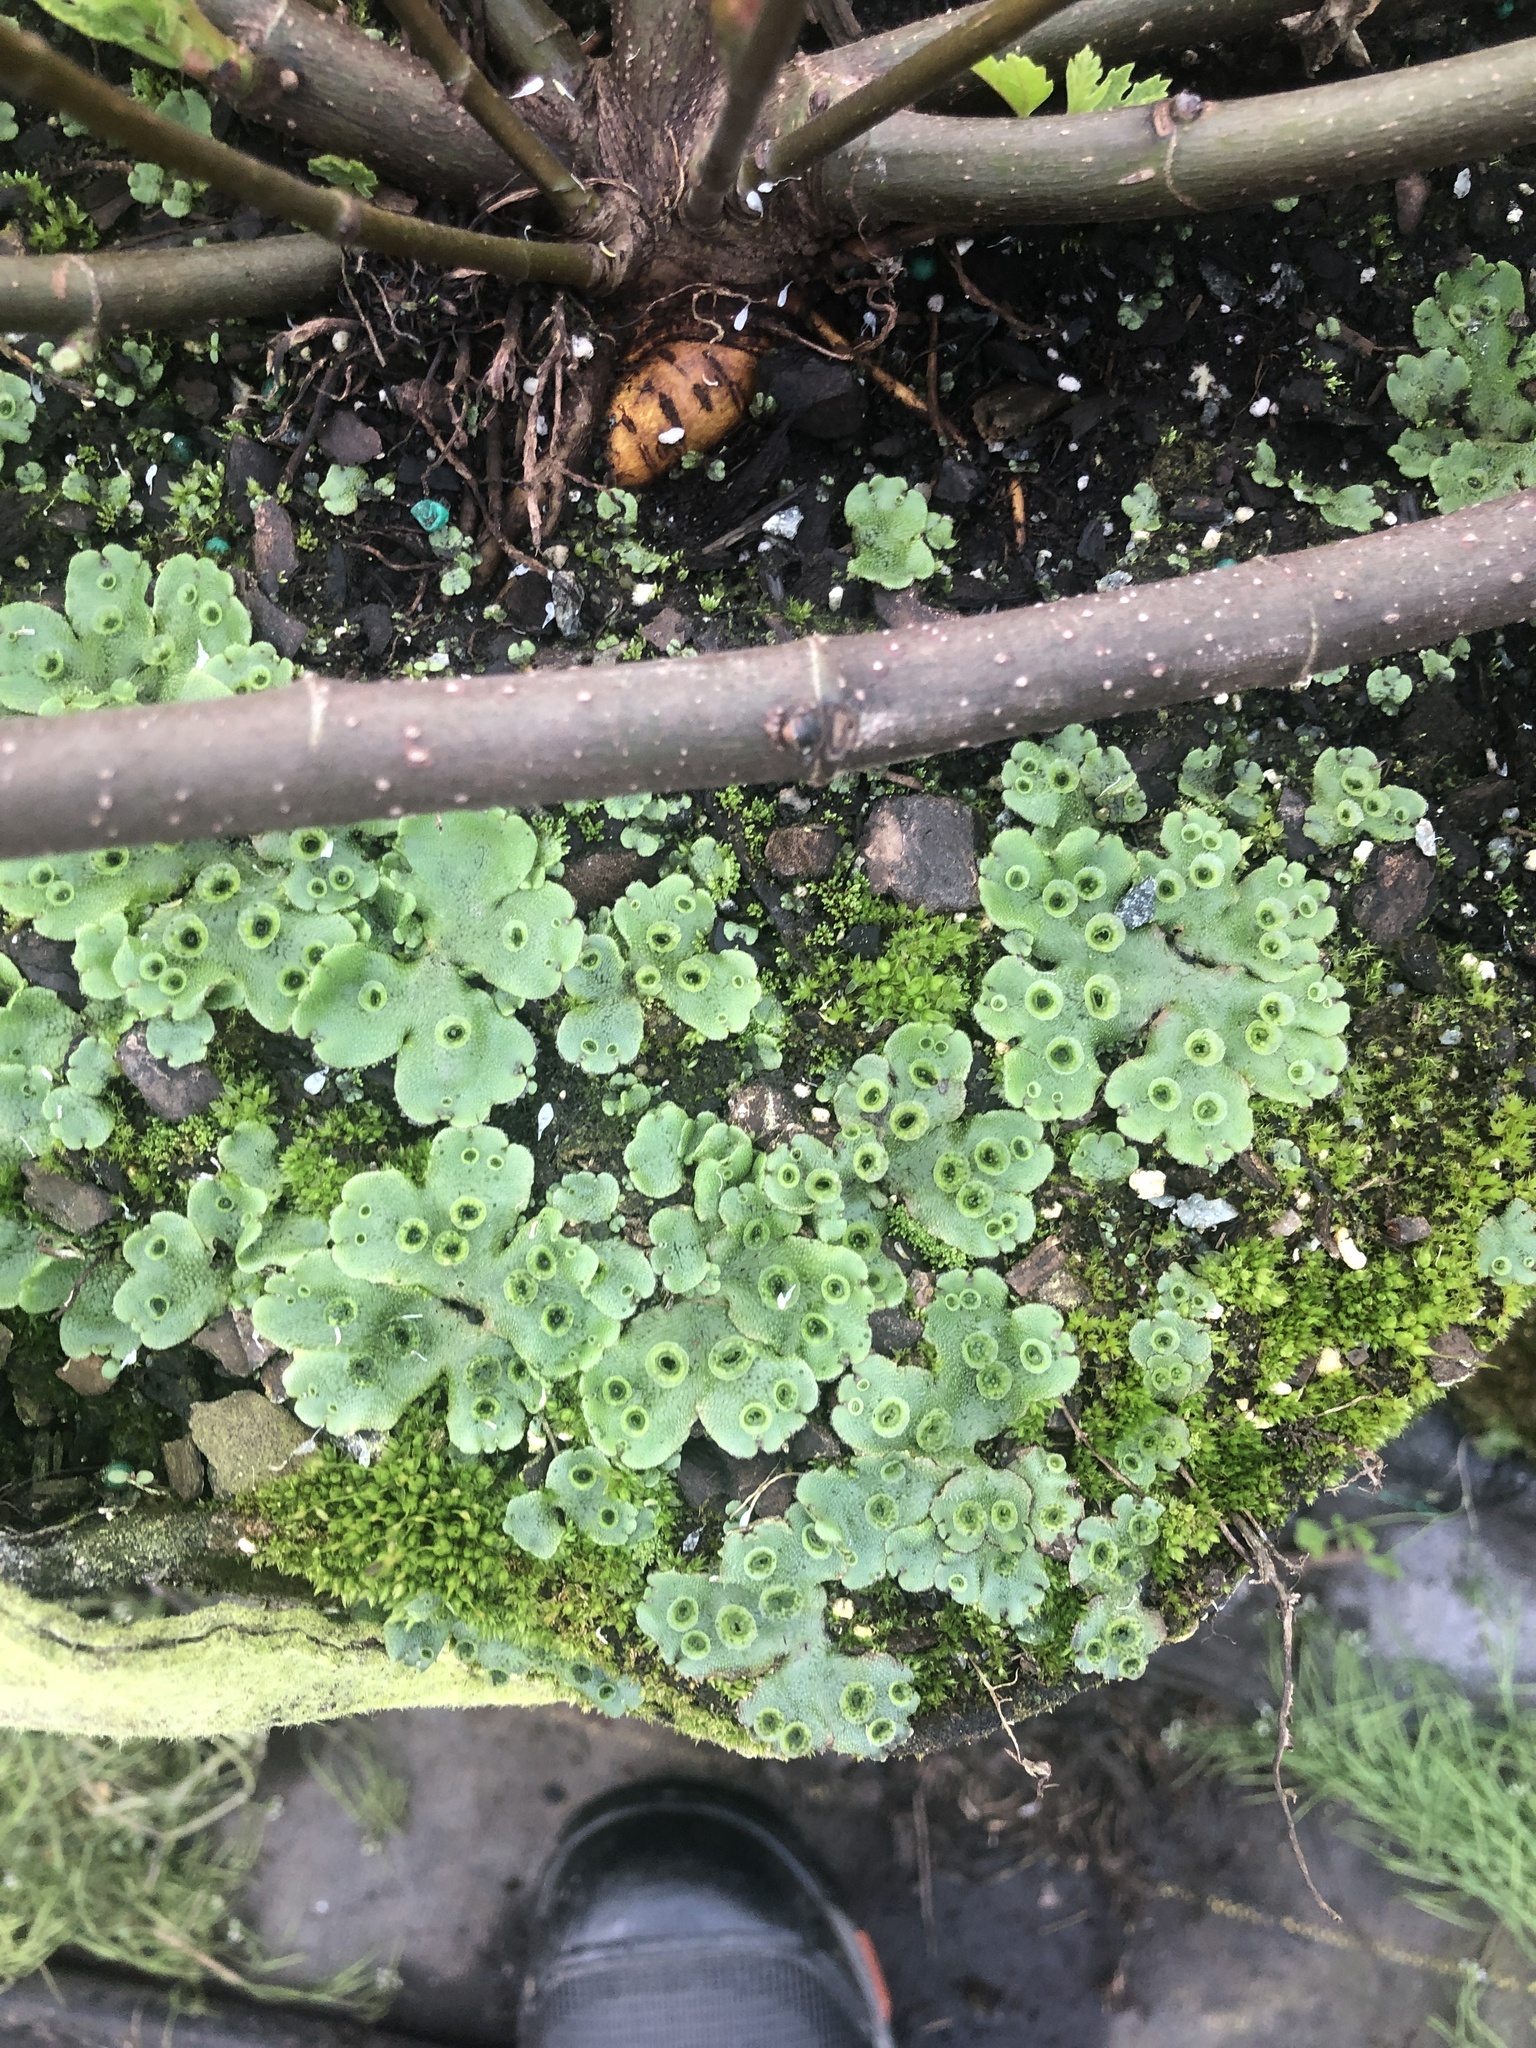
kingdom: Plantae
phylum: Marchantiophyta
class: Marchantiopsida
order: Marchantiales
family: Marchantiaceae
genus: Marchantia
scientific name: Marchantia polymorpha
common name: Common liverwort
